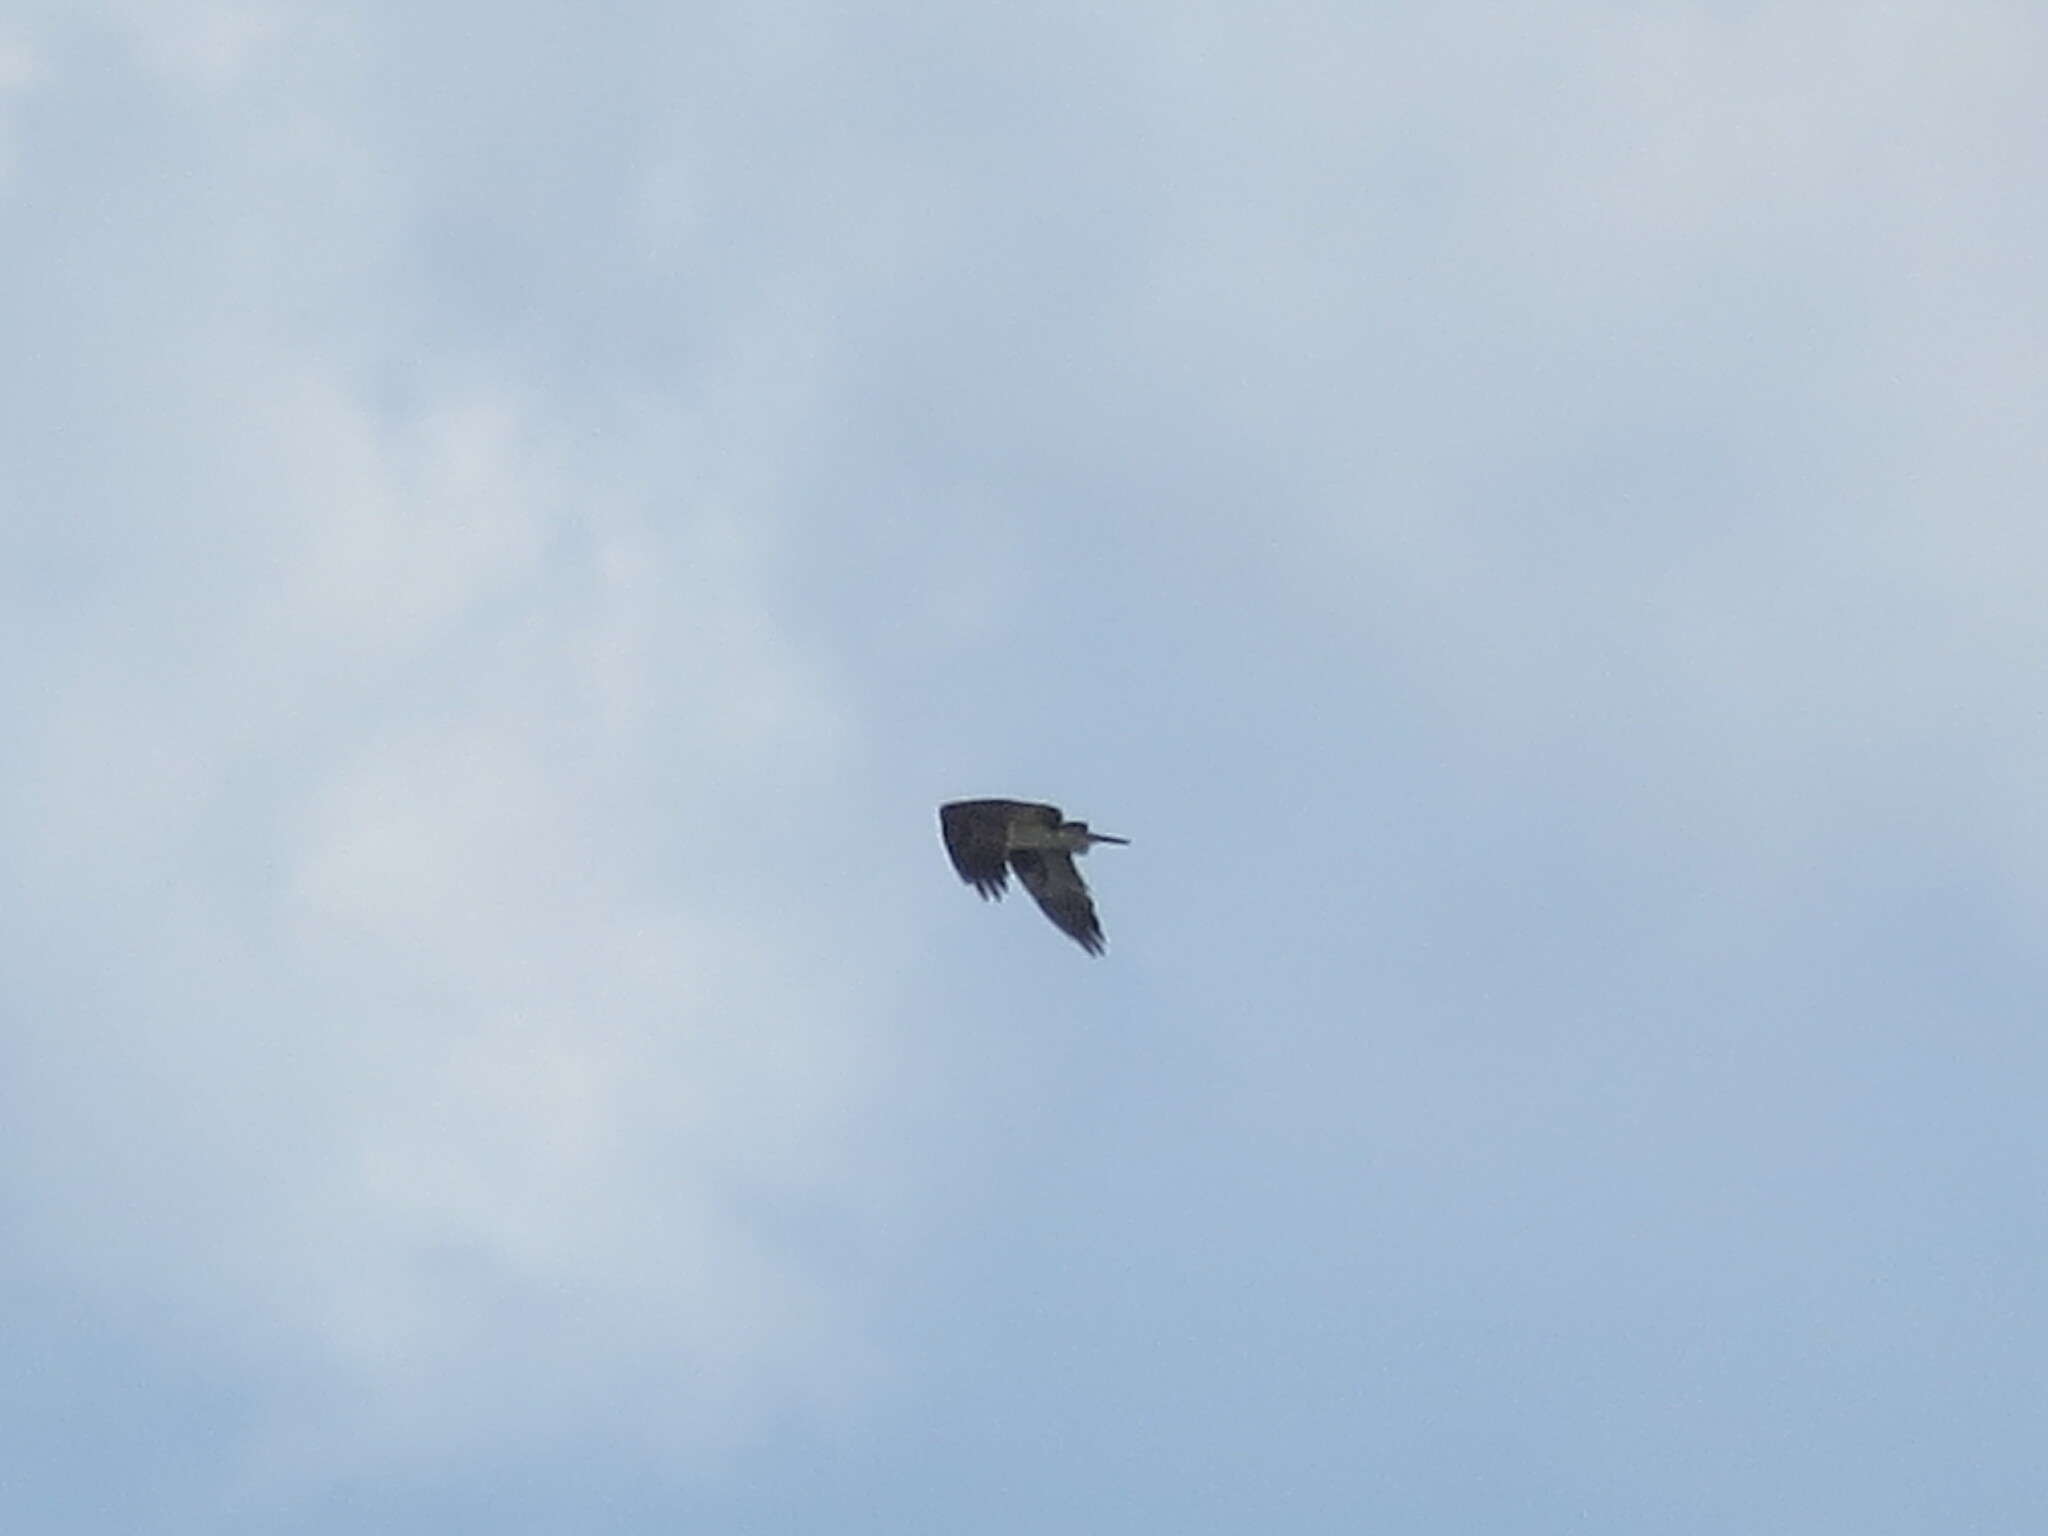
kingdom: Animalia
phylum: Chordata
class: Aves
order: Accipitriformes
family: Pandionidae
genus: Pandion
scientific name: Pandion haliaetus
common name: Osprey
